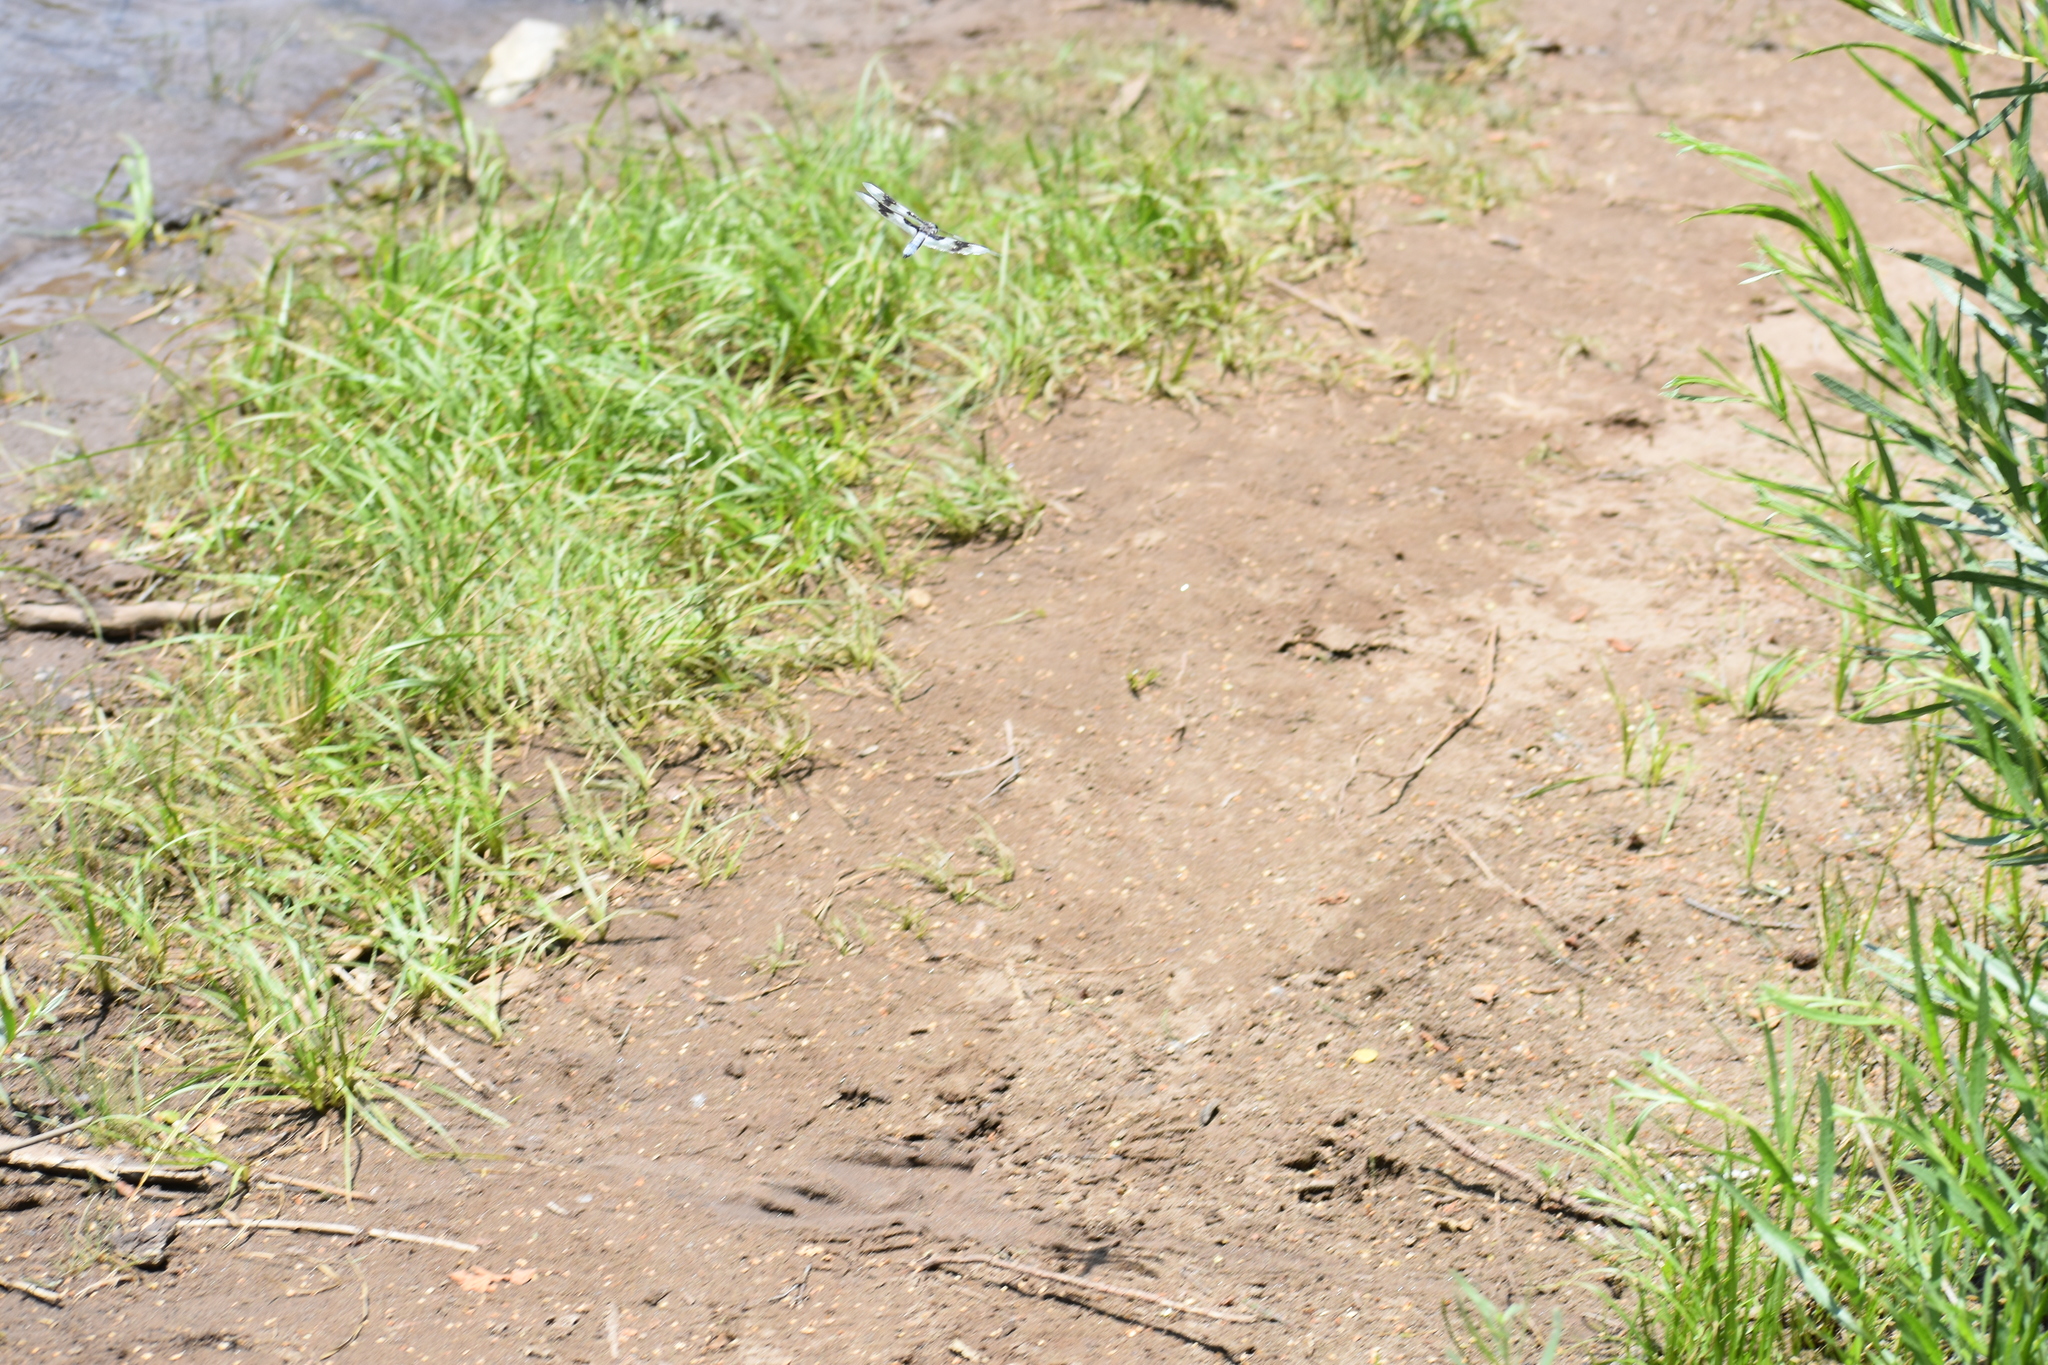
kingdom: Animalia
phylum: Arthropoda
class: Insecta
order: Odonata
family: Libellulidae
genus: Libellula
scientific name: Libellula forensis
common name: Eight-spotted skimmer
